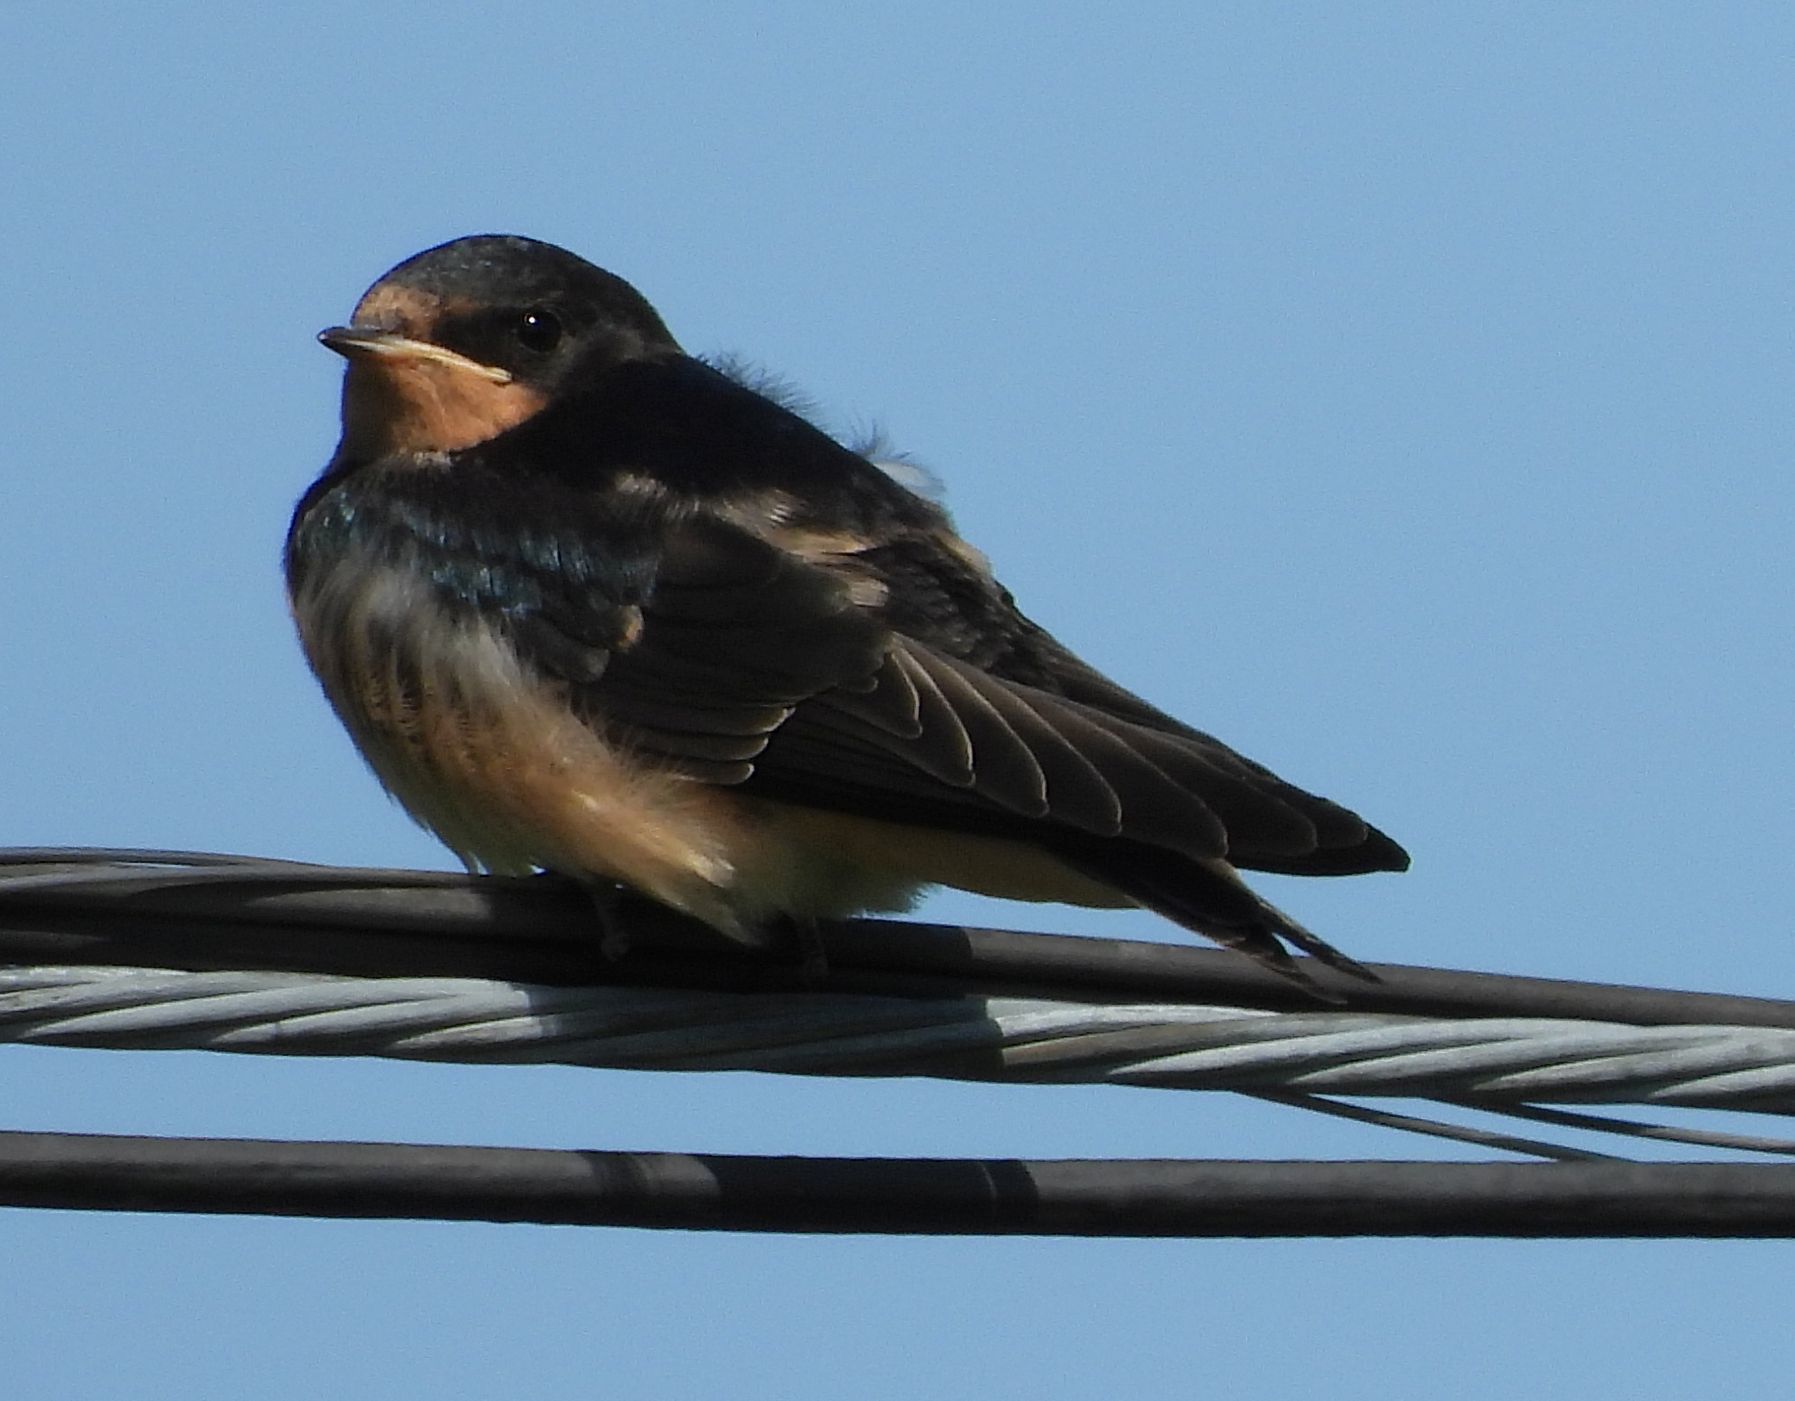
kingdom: Animalia
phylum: Chordata
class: Aves
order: Passeriformes
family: Hirundinidae
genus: Hirundo
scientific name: Hirundo rustica
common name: Barn swallow
